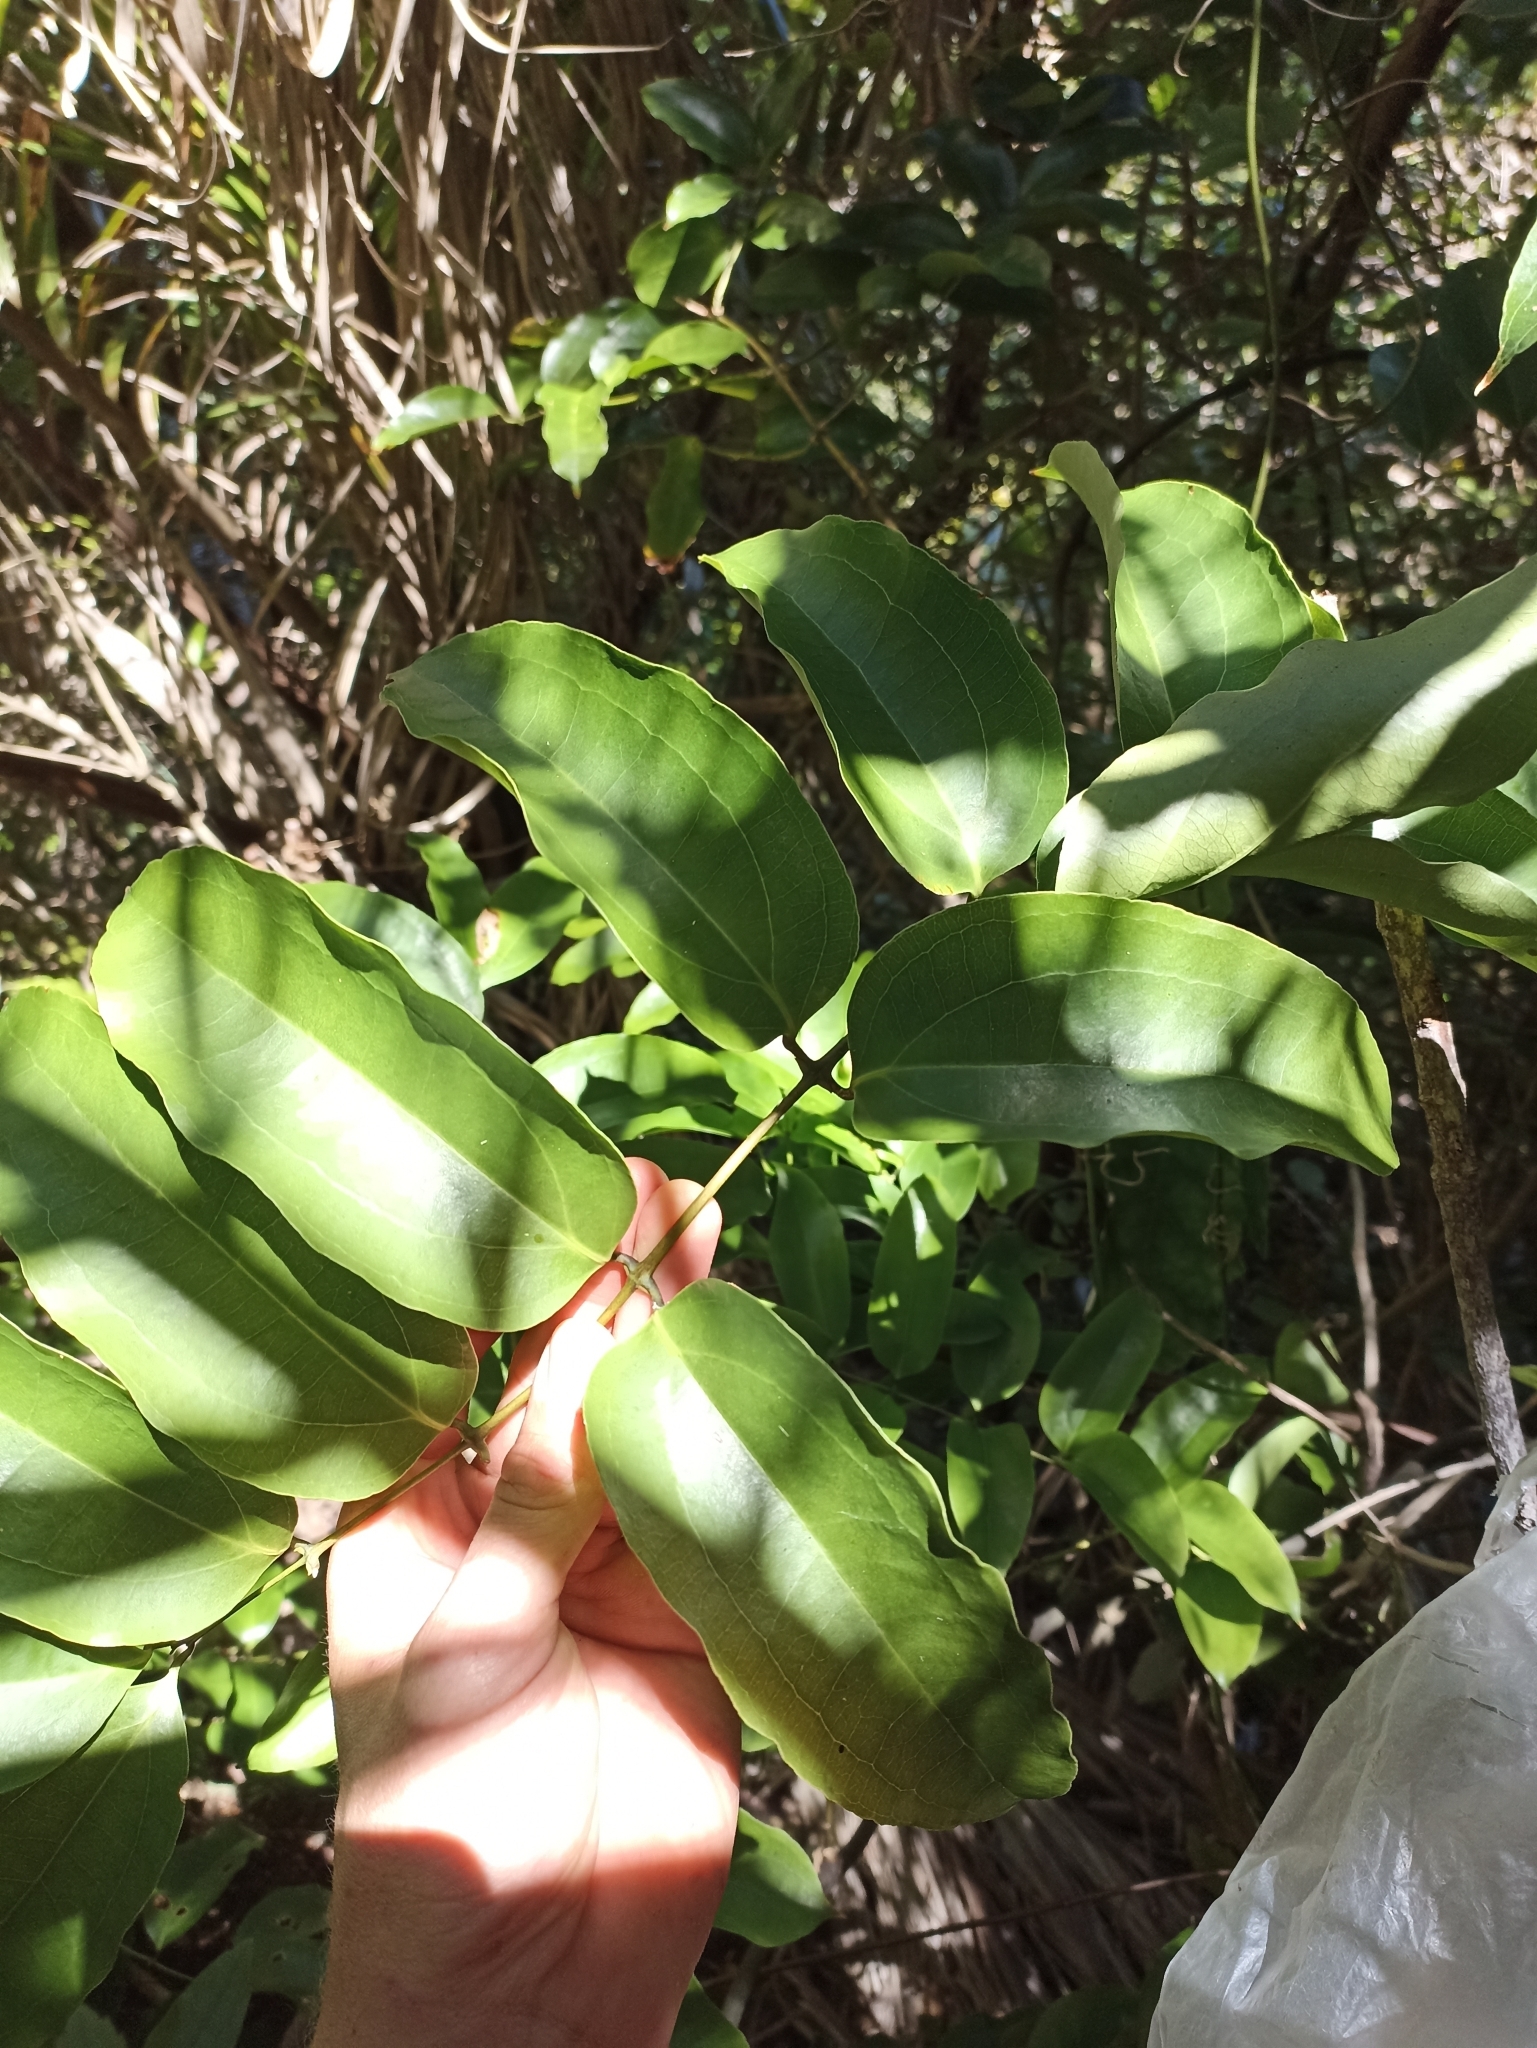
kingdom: Plantae
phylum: Tracheophyta
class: Liliopsida
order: Liliales
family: Ripogonaceae
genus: Ripogonum
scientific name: Ripogonum scandens
